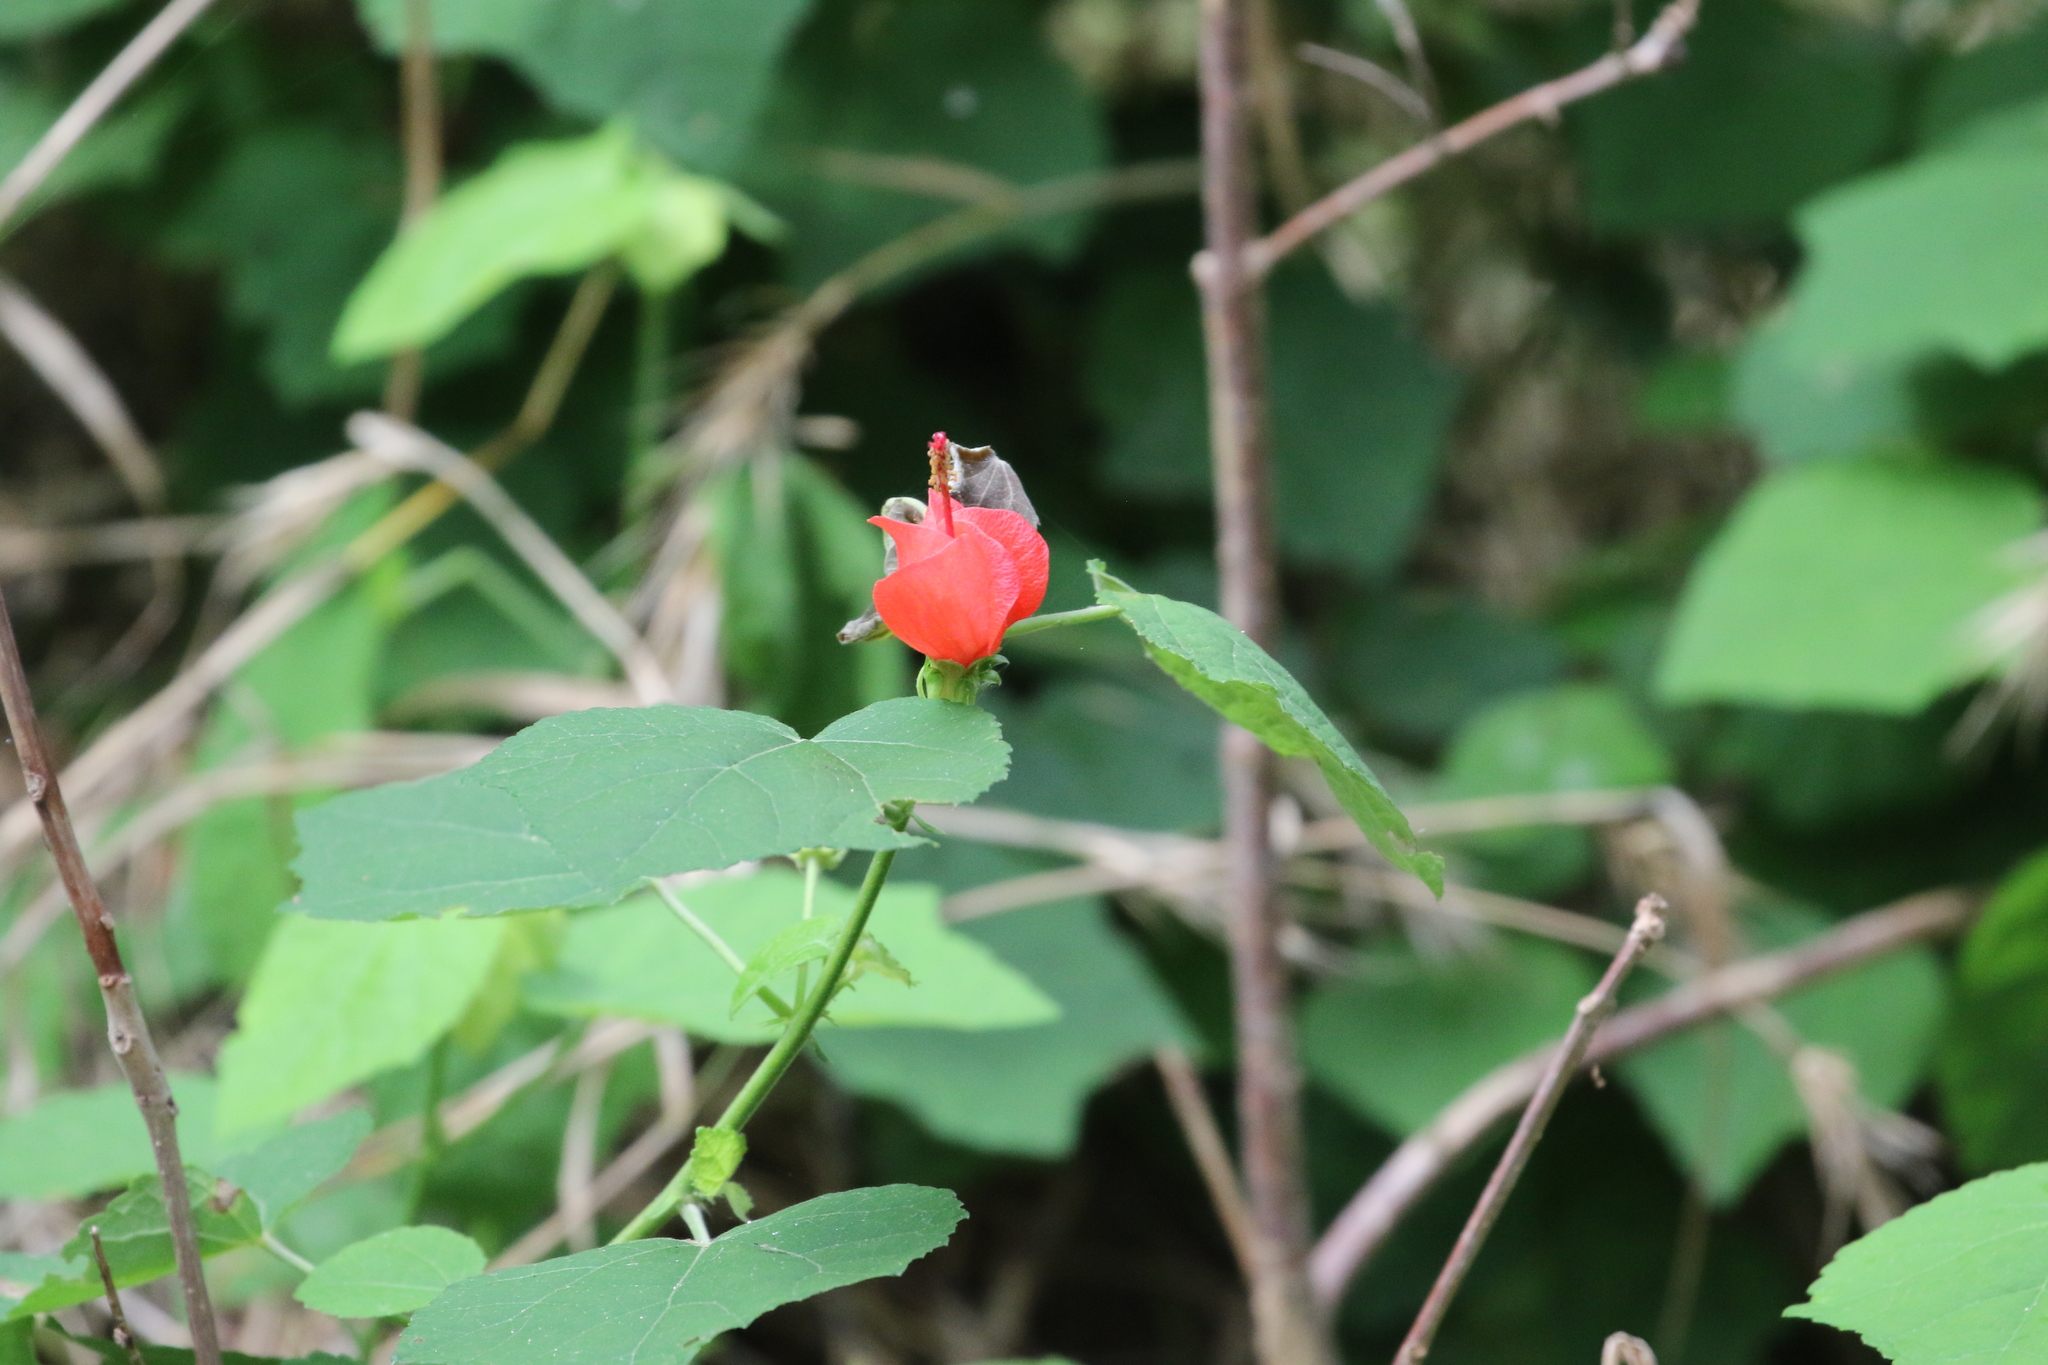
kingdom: Plantae
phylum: Tracheophyta
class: Magnoliopsida
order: Malvales
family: Malvaceae
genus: Malvaviscus
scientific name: Malvaviscus arboreus
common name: Wax mallow
